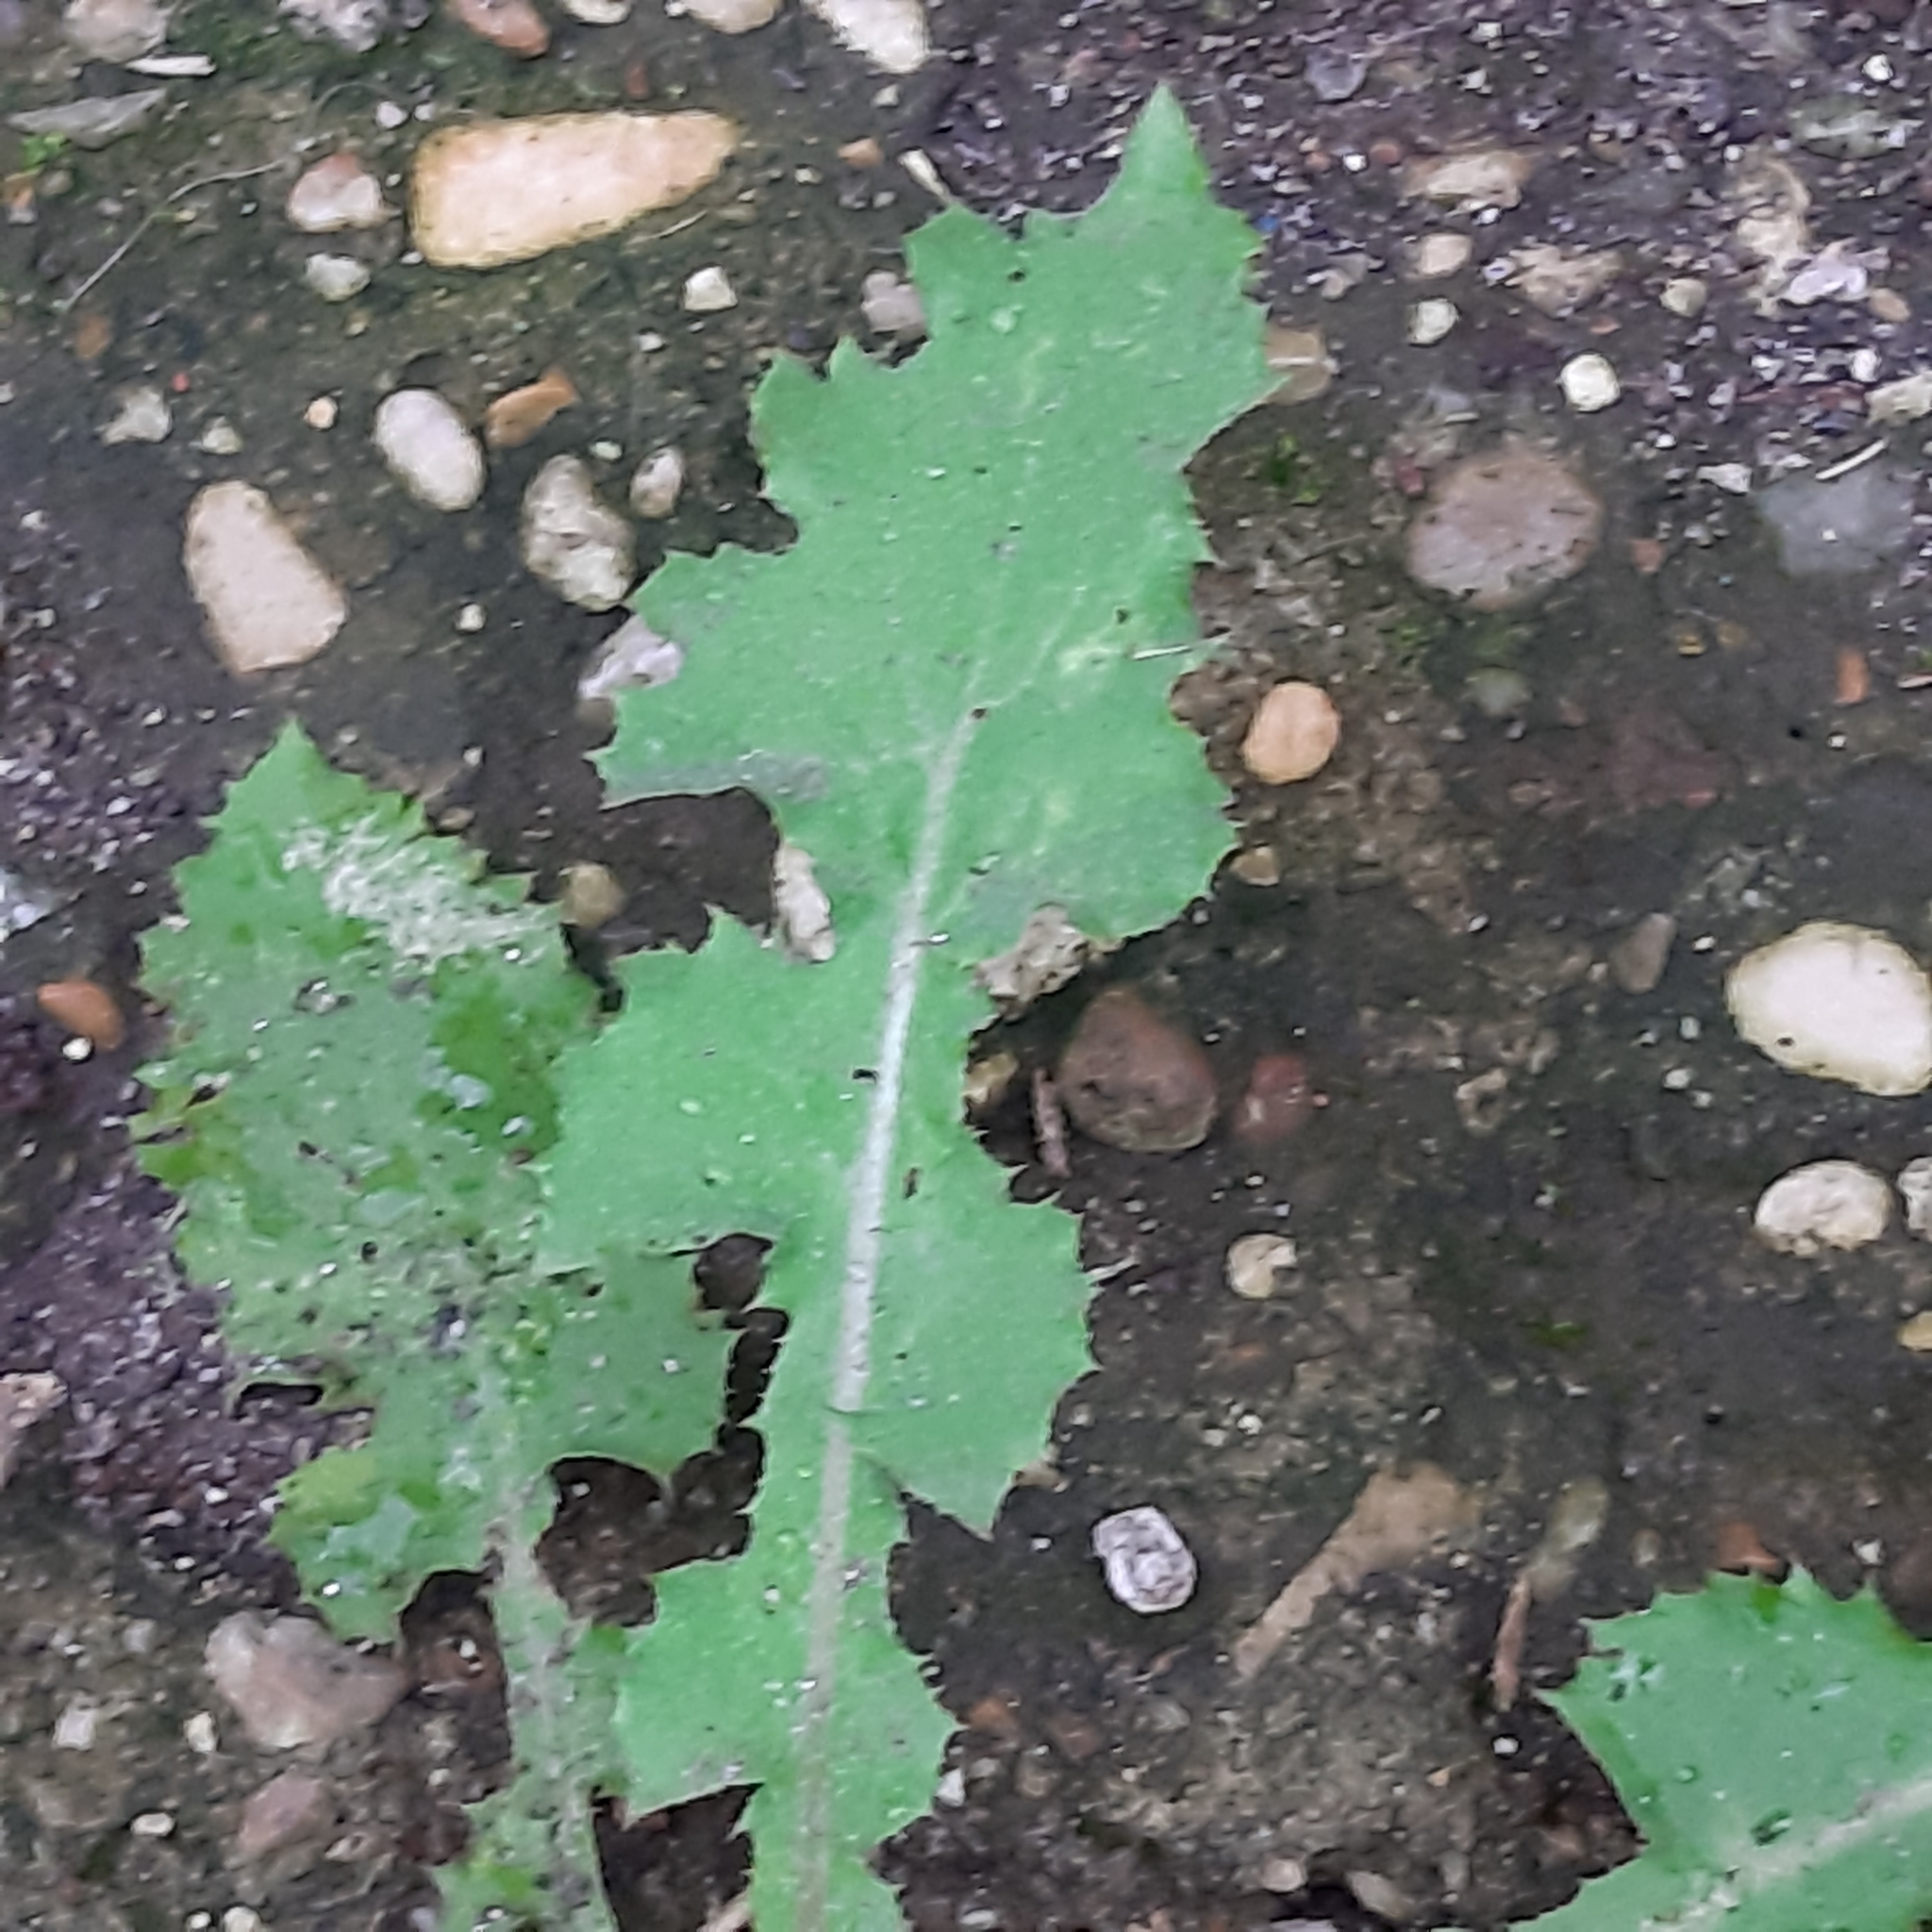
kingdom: Plantae
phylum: Tracheophyta
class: Magnoliopsida
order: Asterales
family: Asteraceae
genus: Sonchus
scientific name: Sonchus oleraceus
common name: Common sowthistle
